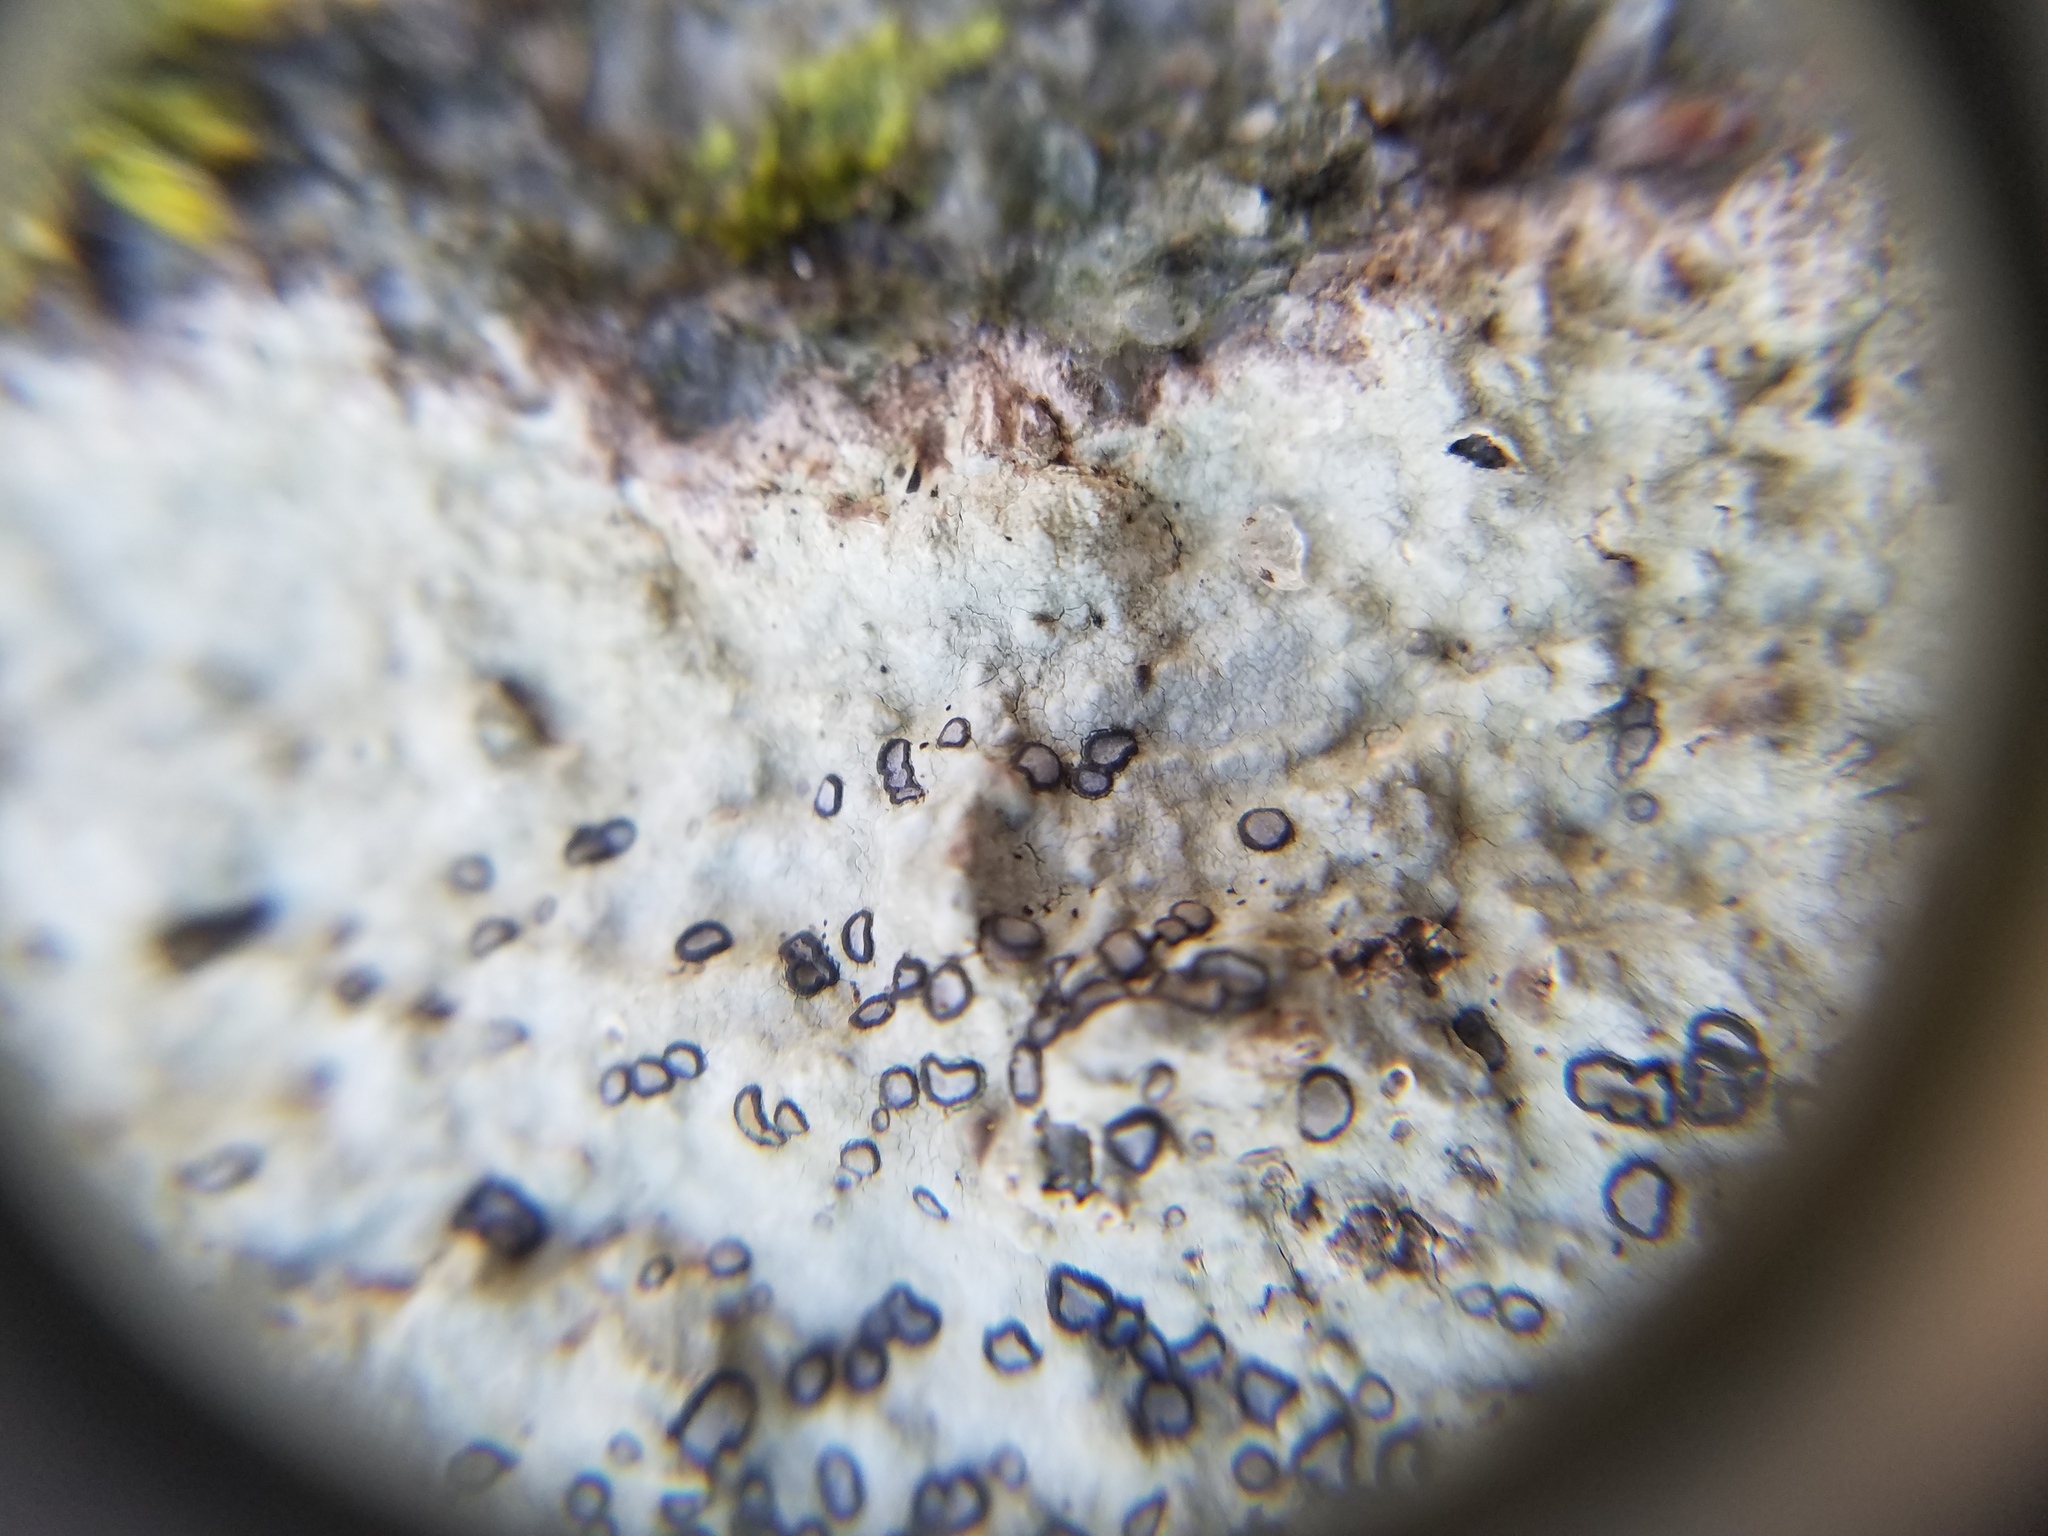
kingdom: Fungi
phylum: Ascomycota
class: Lecanoromycetes
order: Lecideales
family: Lecideaceae
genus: Porpidia
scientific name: Porpidia albocaerulescens
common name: Smokey-eyed boulder lichen
